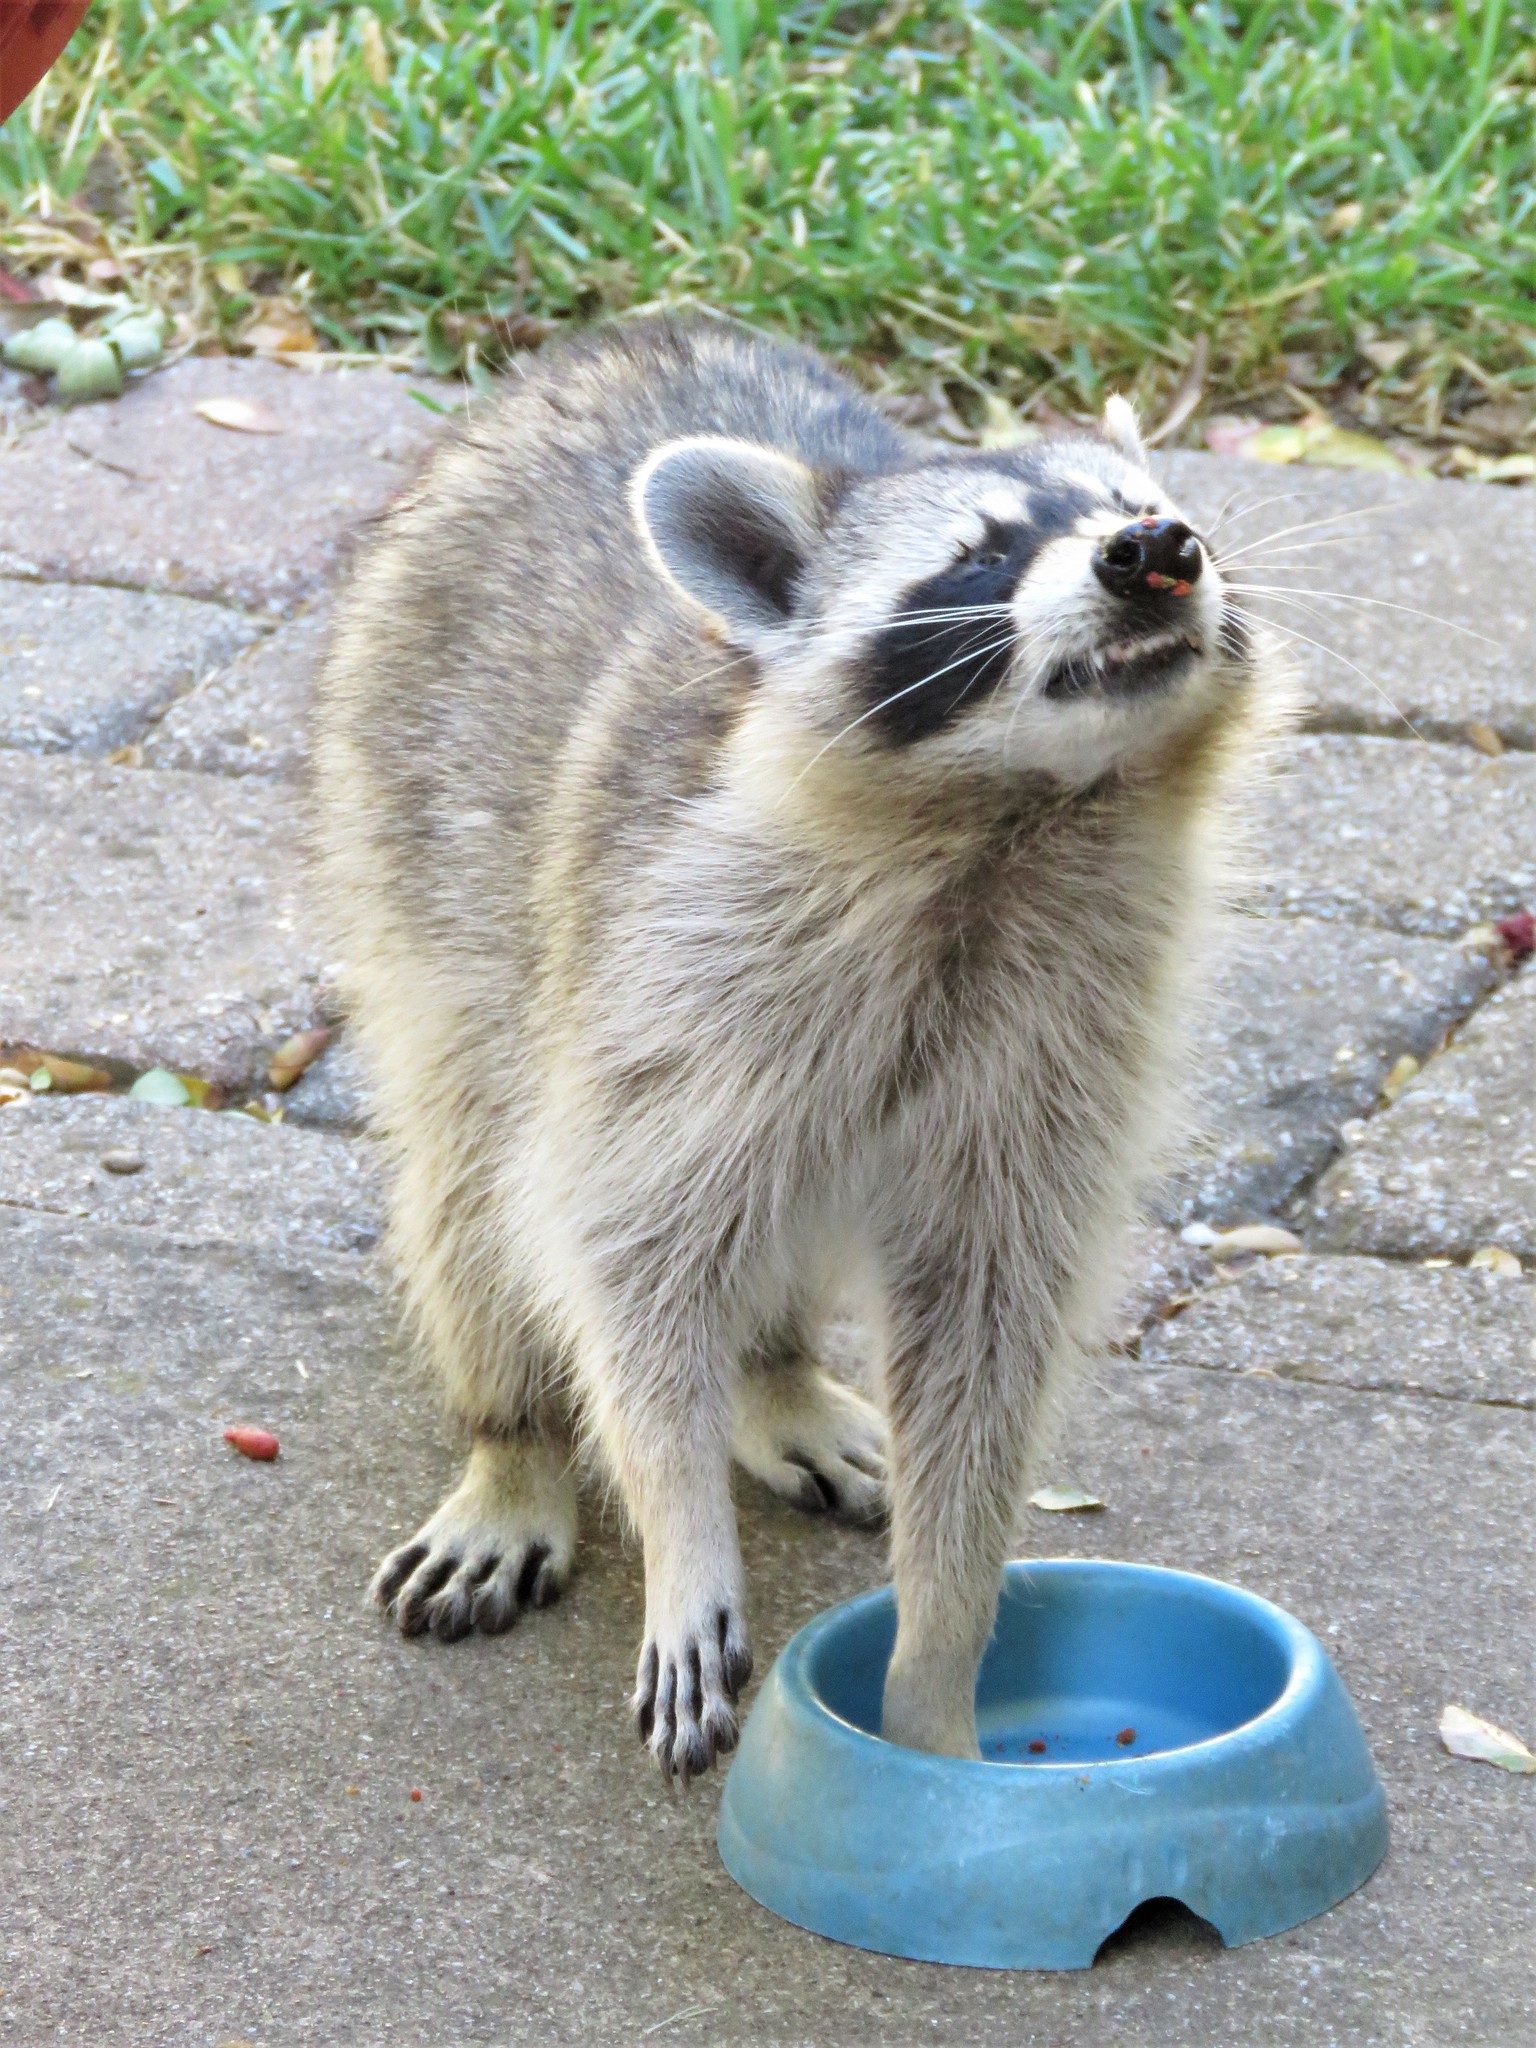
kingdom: Animalia
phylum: Chordata
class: Mammalia
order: Carnivora
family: Procyonidae
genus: Procyon
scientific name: Procyon lotor
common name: Raccoon
